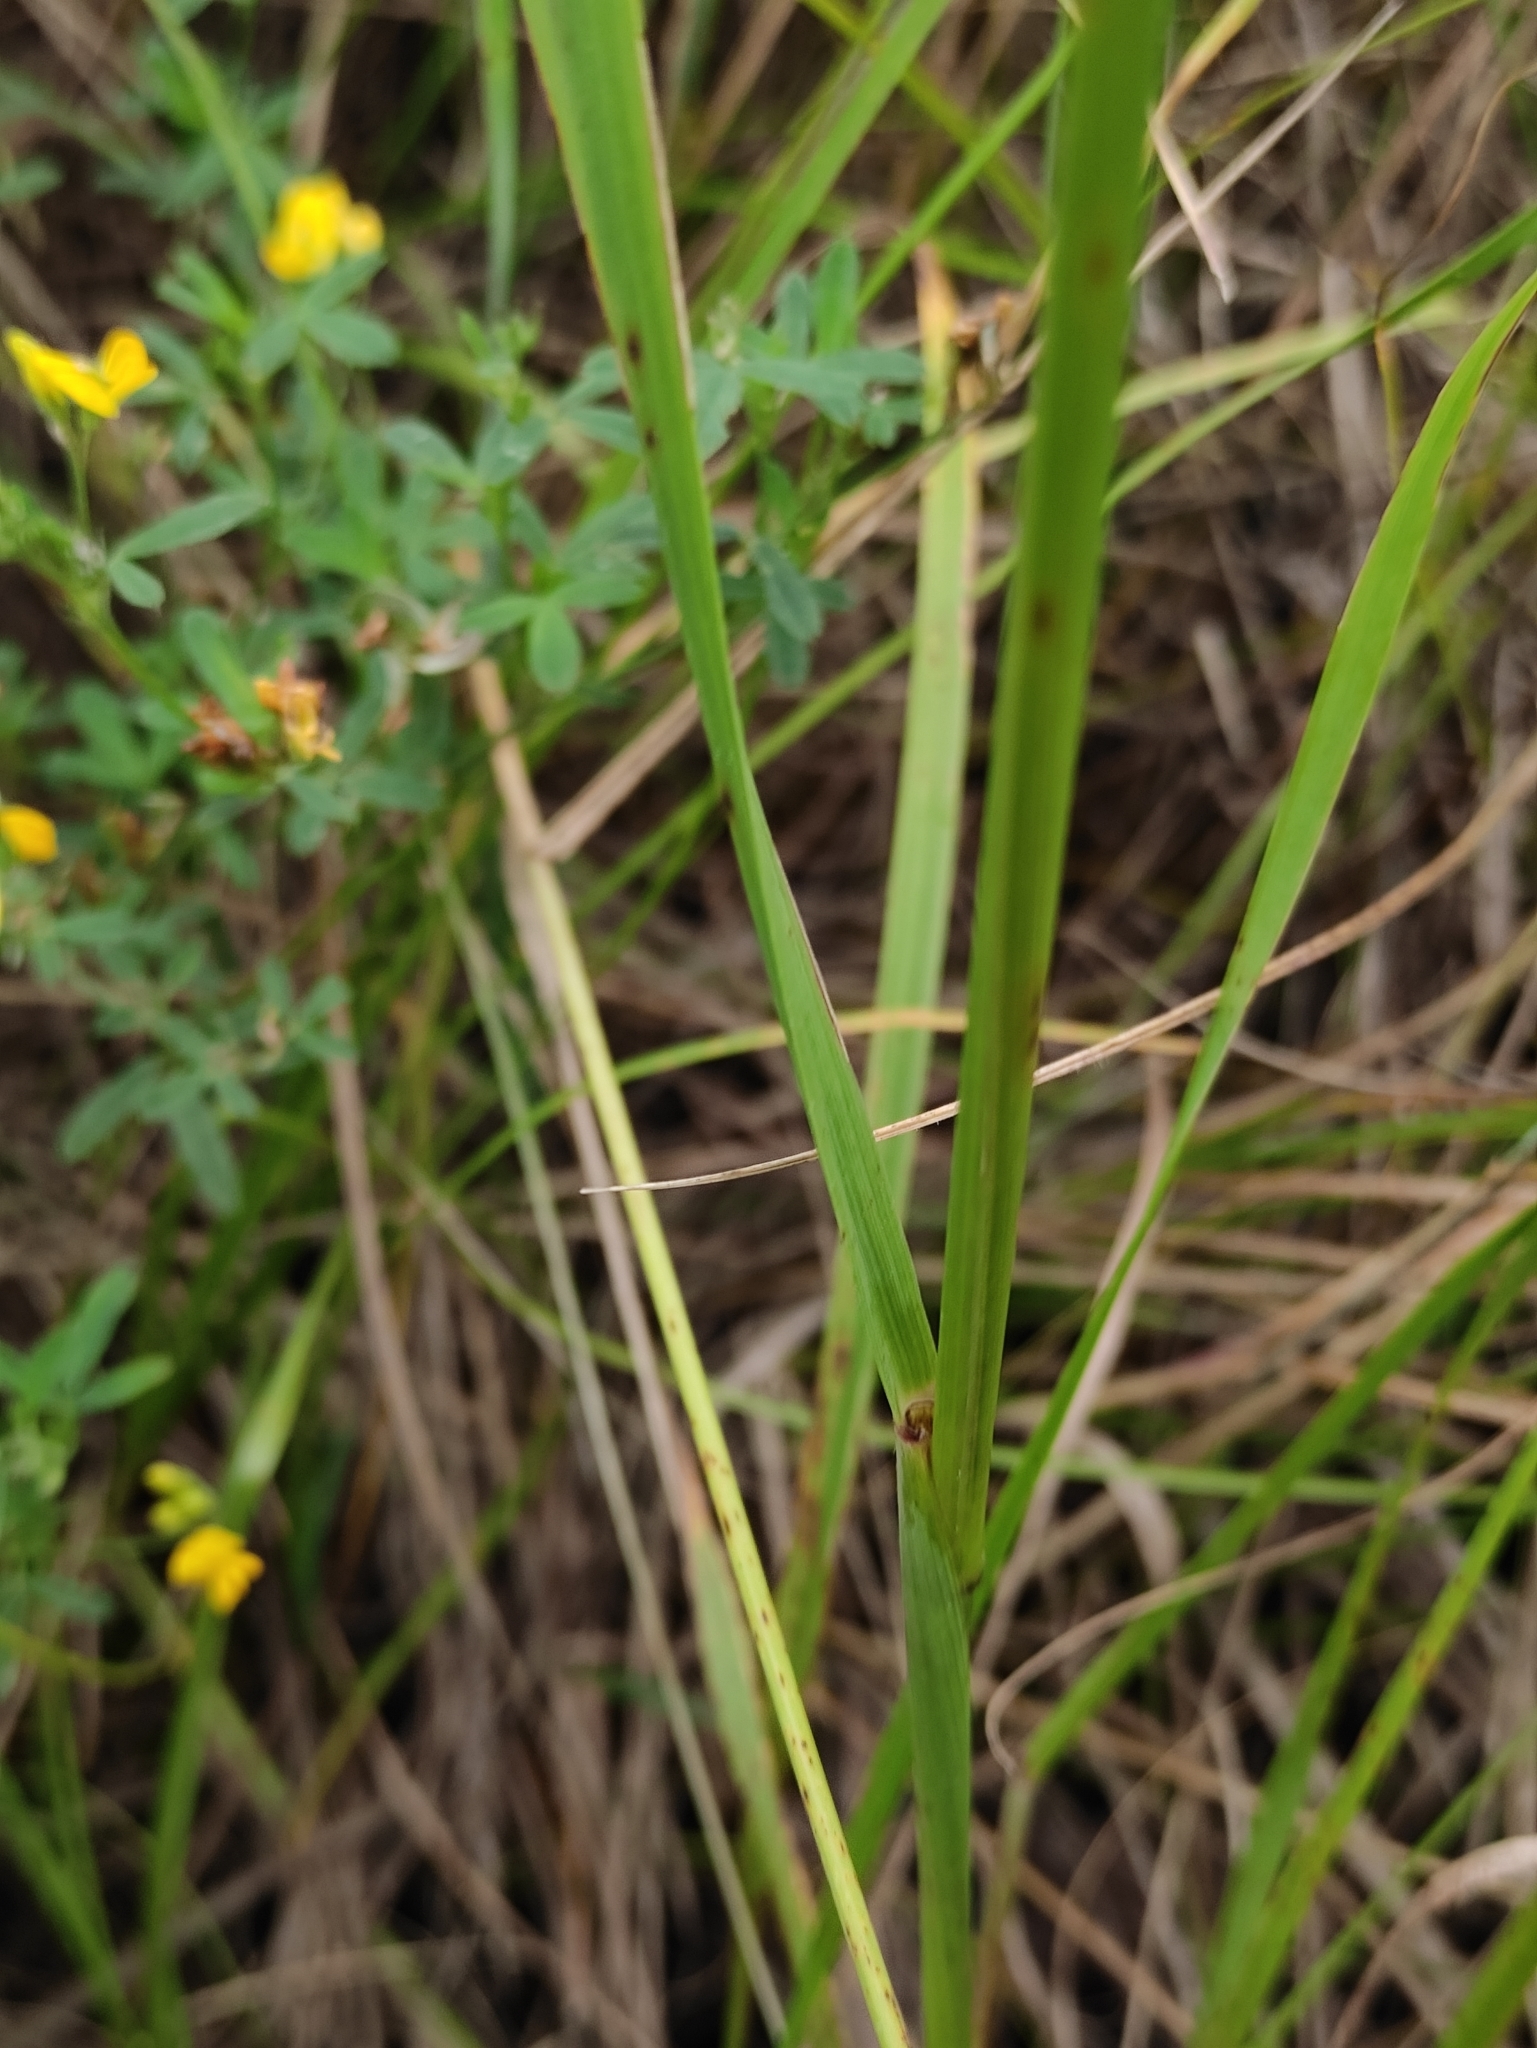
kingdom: Plantae
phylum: Tracheophyta
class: Liliopsida
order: Poales
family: Poaceae
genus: Achnatherum
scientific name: Achnatherum sibiricum
